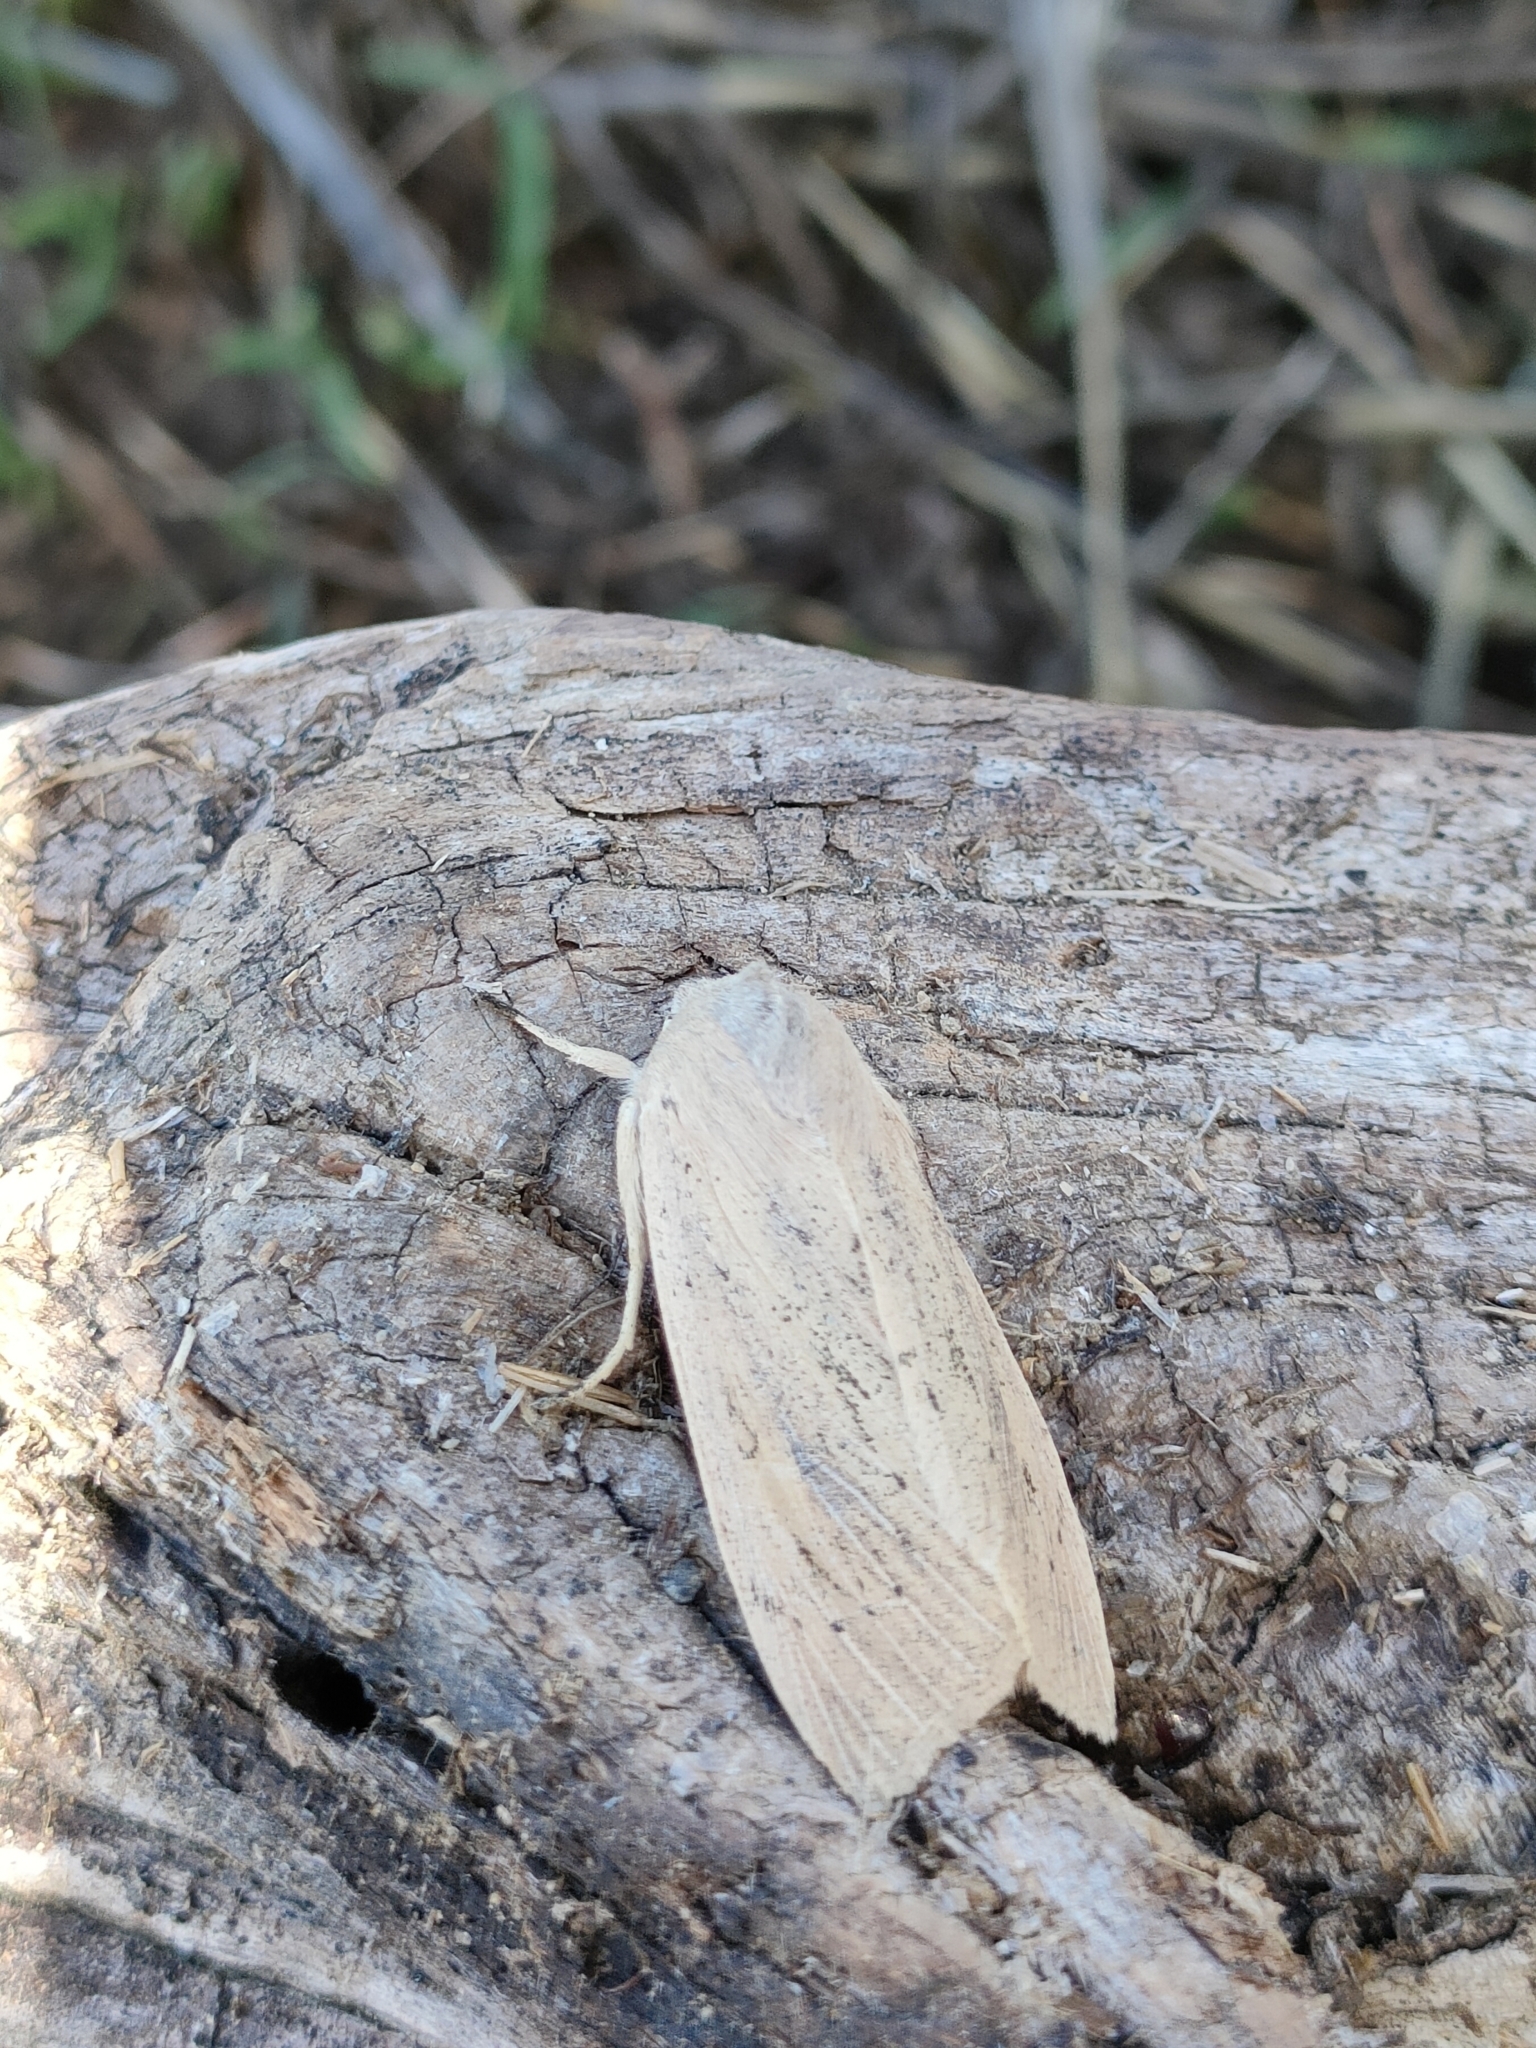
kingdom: Animalia
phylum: Arthropoda
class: Insecta
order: Lepidoptera
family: Noctuidae
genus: Rhizedra
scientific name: Rhizedra lutosa
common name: Large wainscot
